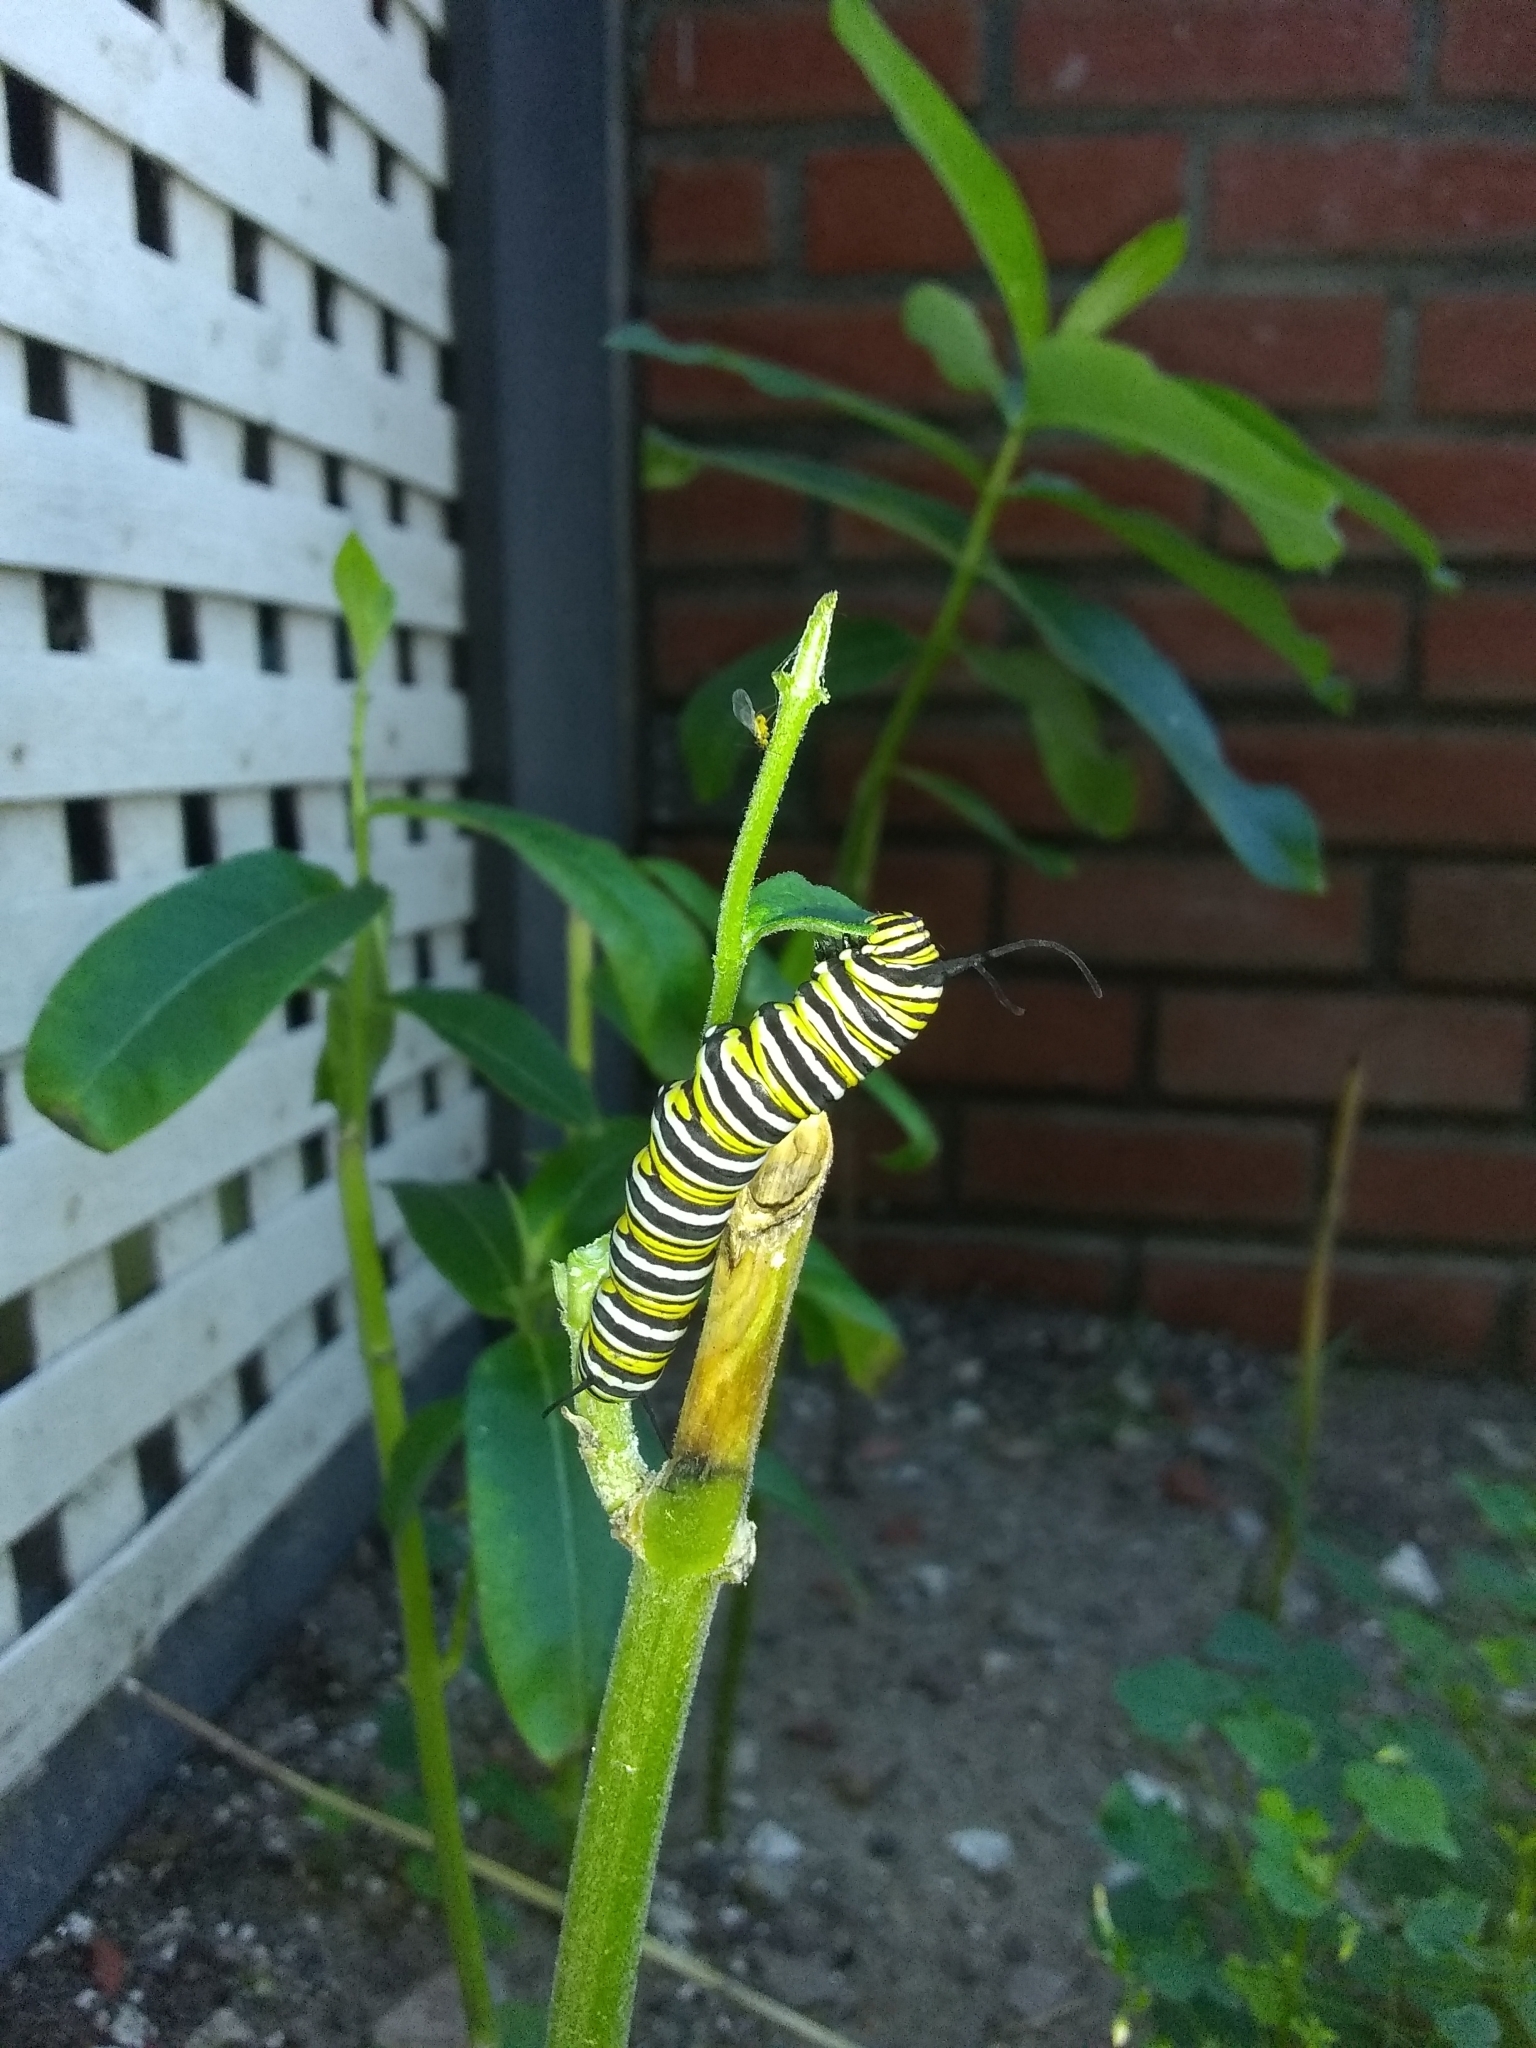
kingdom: Animalia
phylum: Arthropoda
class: Insecta
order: Lepidoptera
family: Nymphalidae
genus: Danaus
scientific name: Danaus plexippus
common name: Monarch
